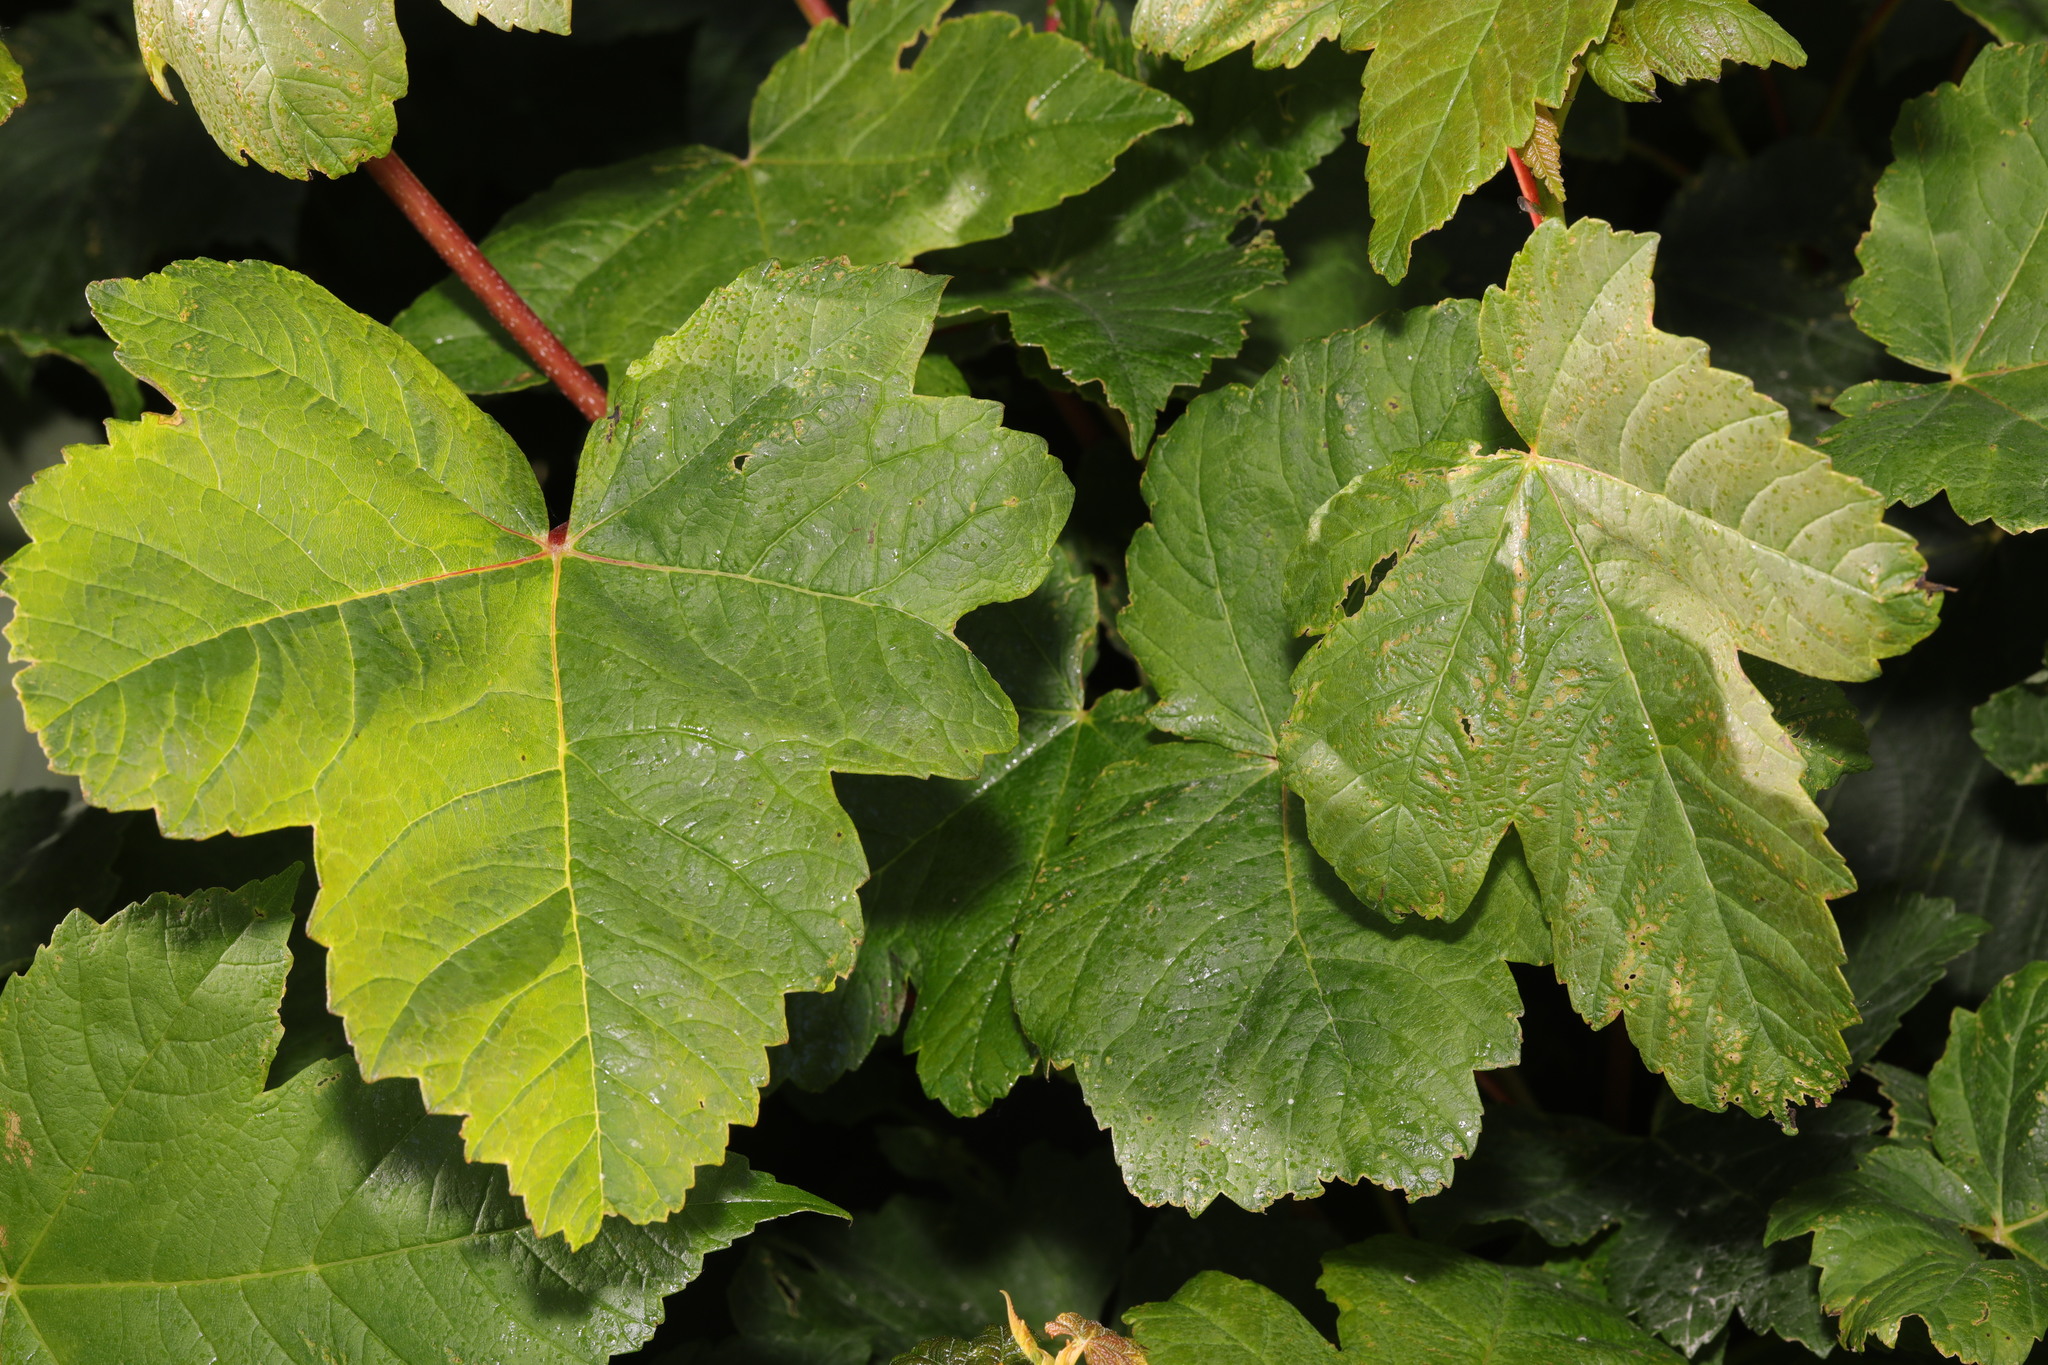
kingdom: Plantae
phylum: Tracheophyta
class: Magnoliopsida
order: Sapindales
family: Sapindaceae
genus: Acer
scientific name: Acer pseudoplatanus
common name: Sycamore
